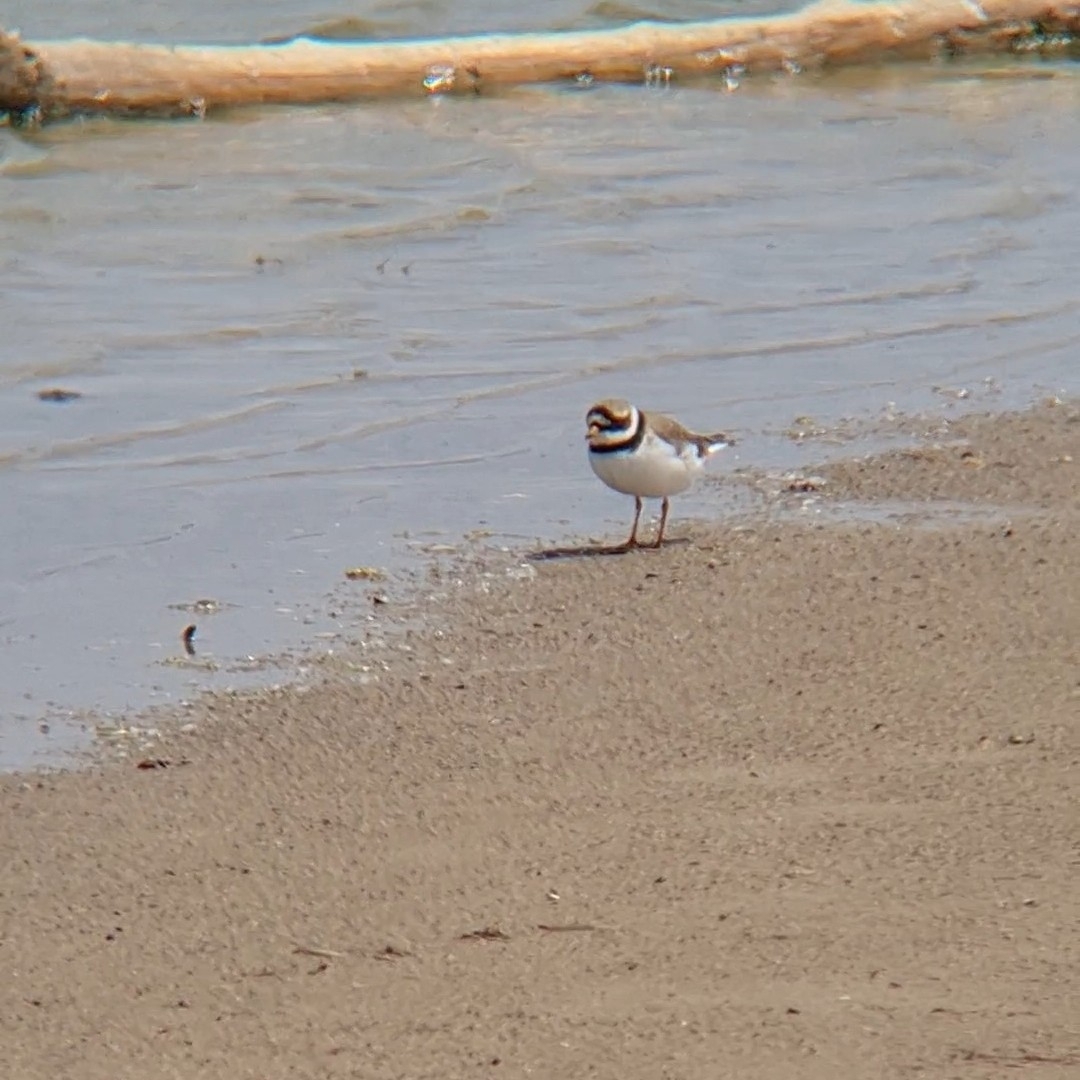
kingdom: Animalia
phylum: Chordata
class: Aves
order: Charadriiformes
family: Charadriidae
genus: Charadrius
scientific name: Charadrius hiaticula
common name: Common ringed plover
